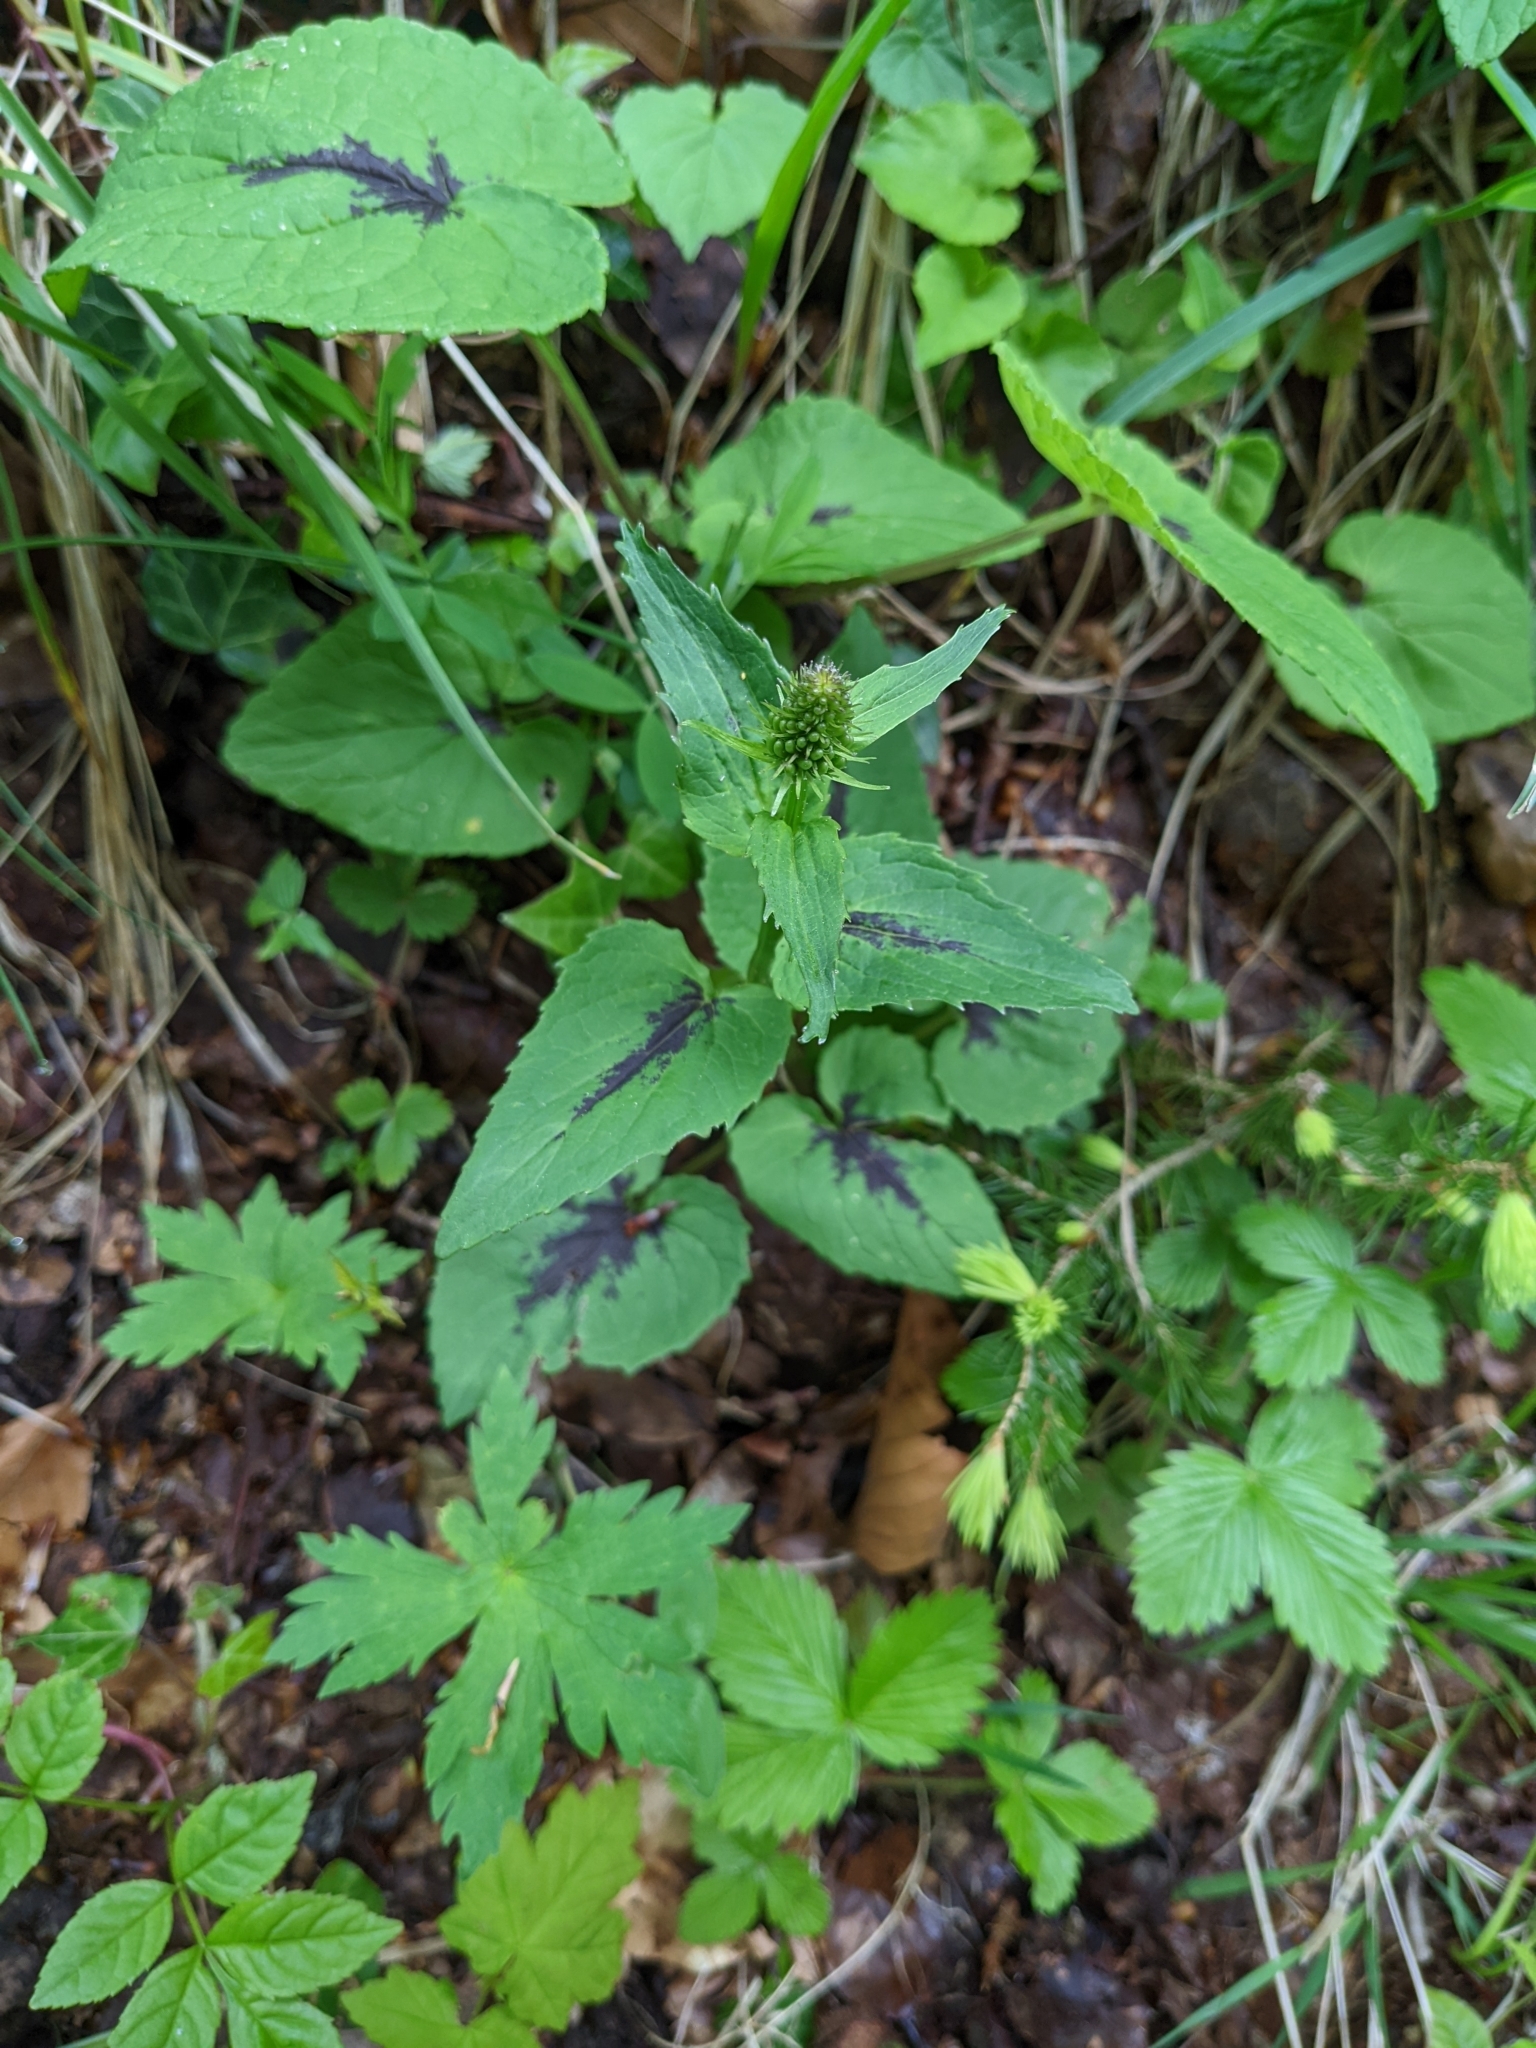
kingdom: Plantae
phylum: Tracheophyta
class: Magnoliopsida
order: Asterales
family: Campanulaceae
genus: Phyteuma
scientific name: Phyteuma spicatum
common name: Spiked rampion
